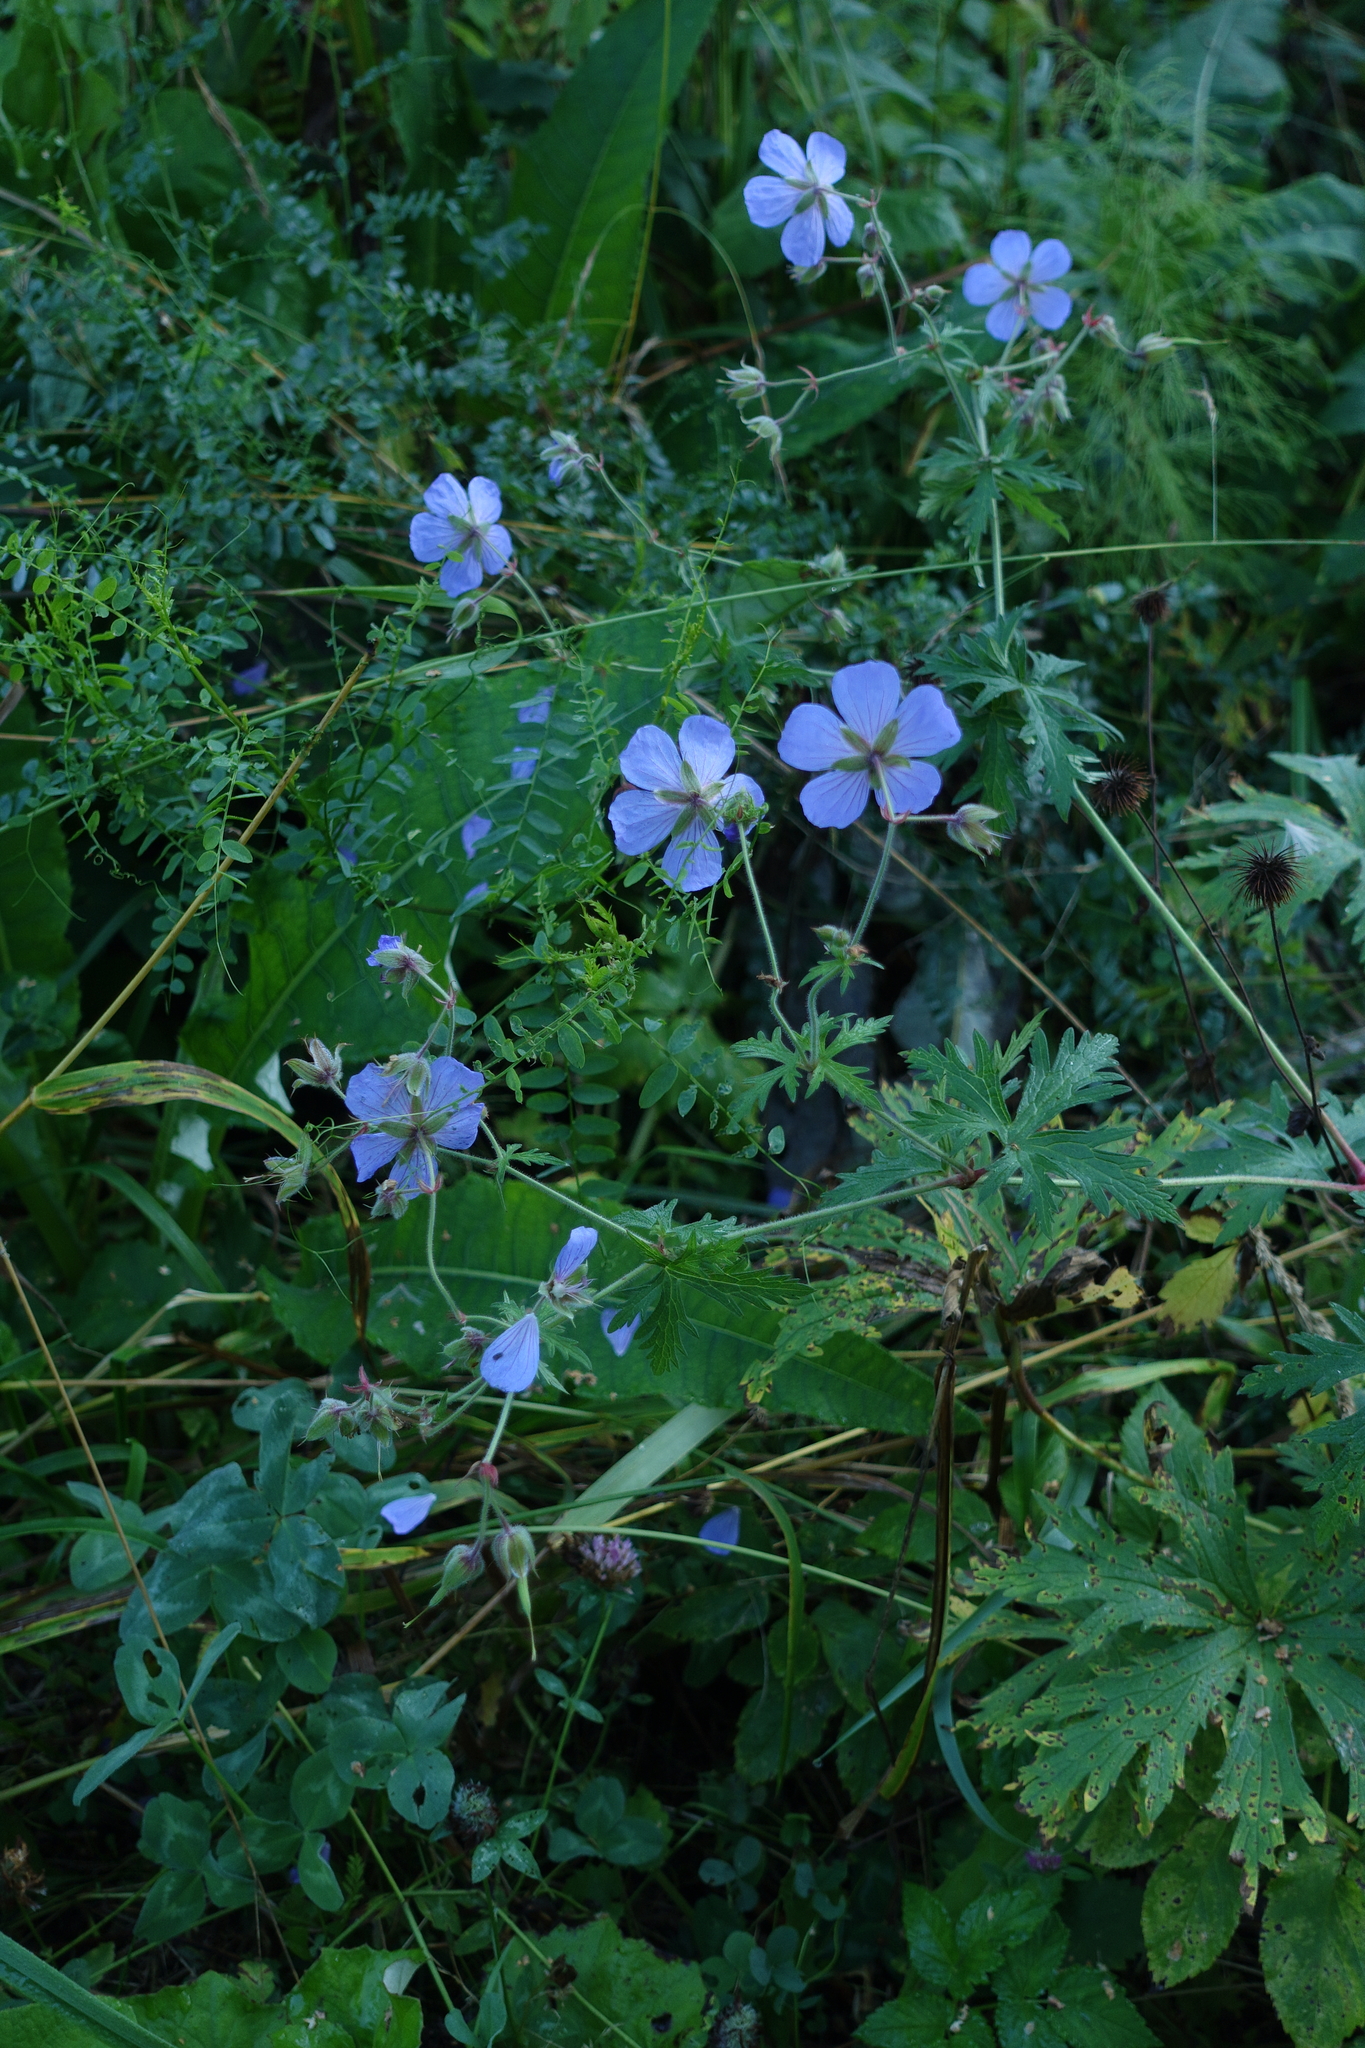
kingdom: Plantae
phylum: Tracheophyta
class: Magnoliopsida
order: Geraniales
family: Geraniaceae
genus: Geranium
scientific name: Geranium pratense
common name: Meadow crane's-bill
